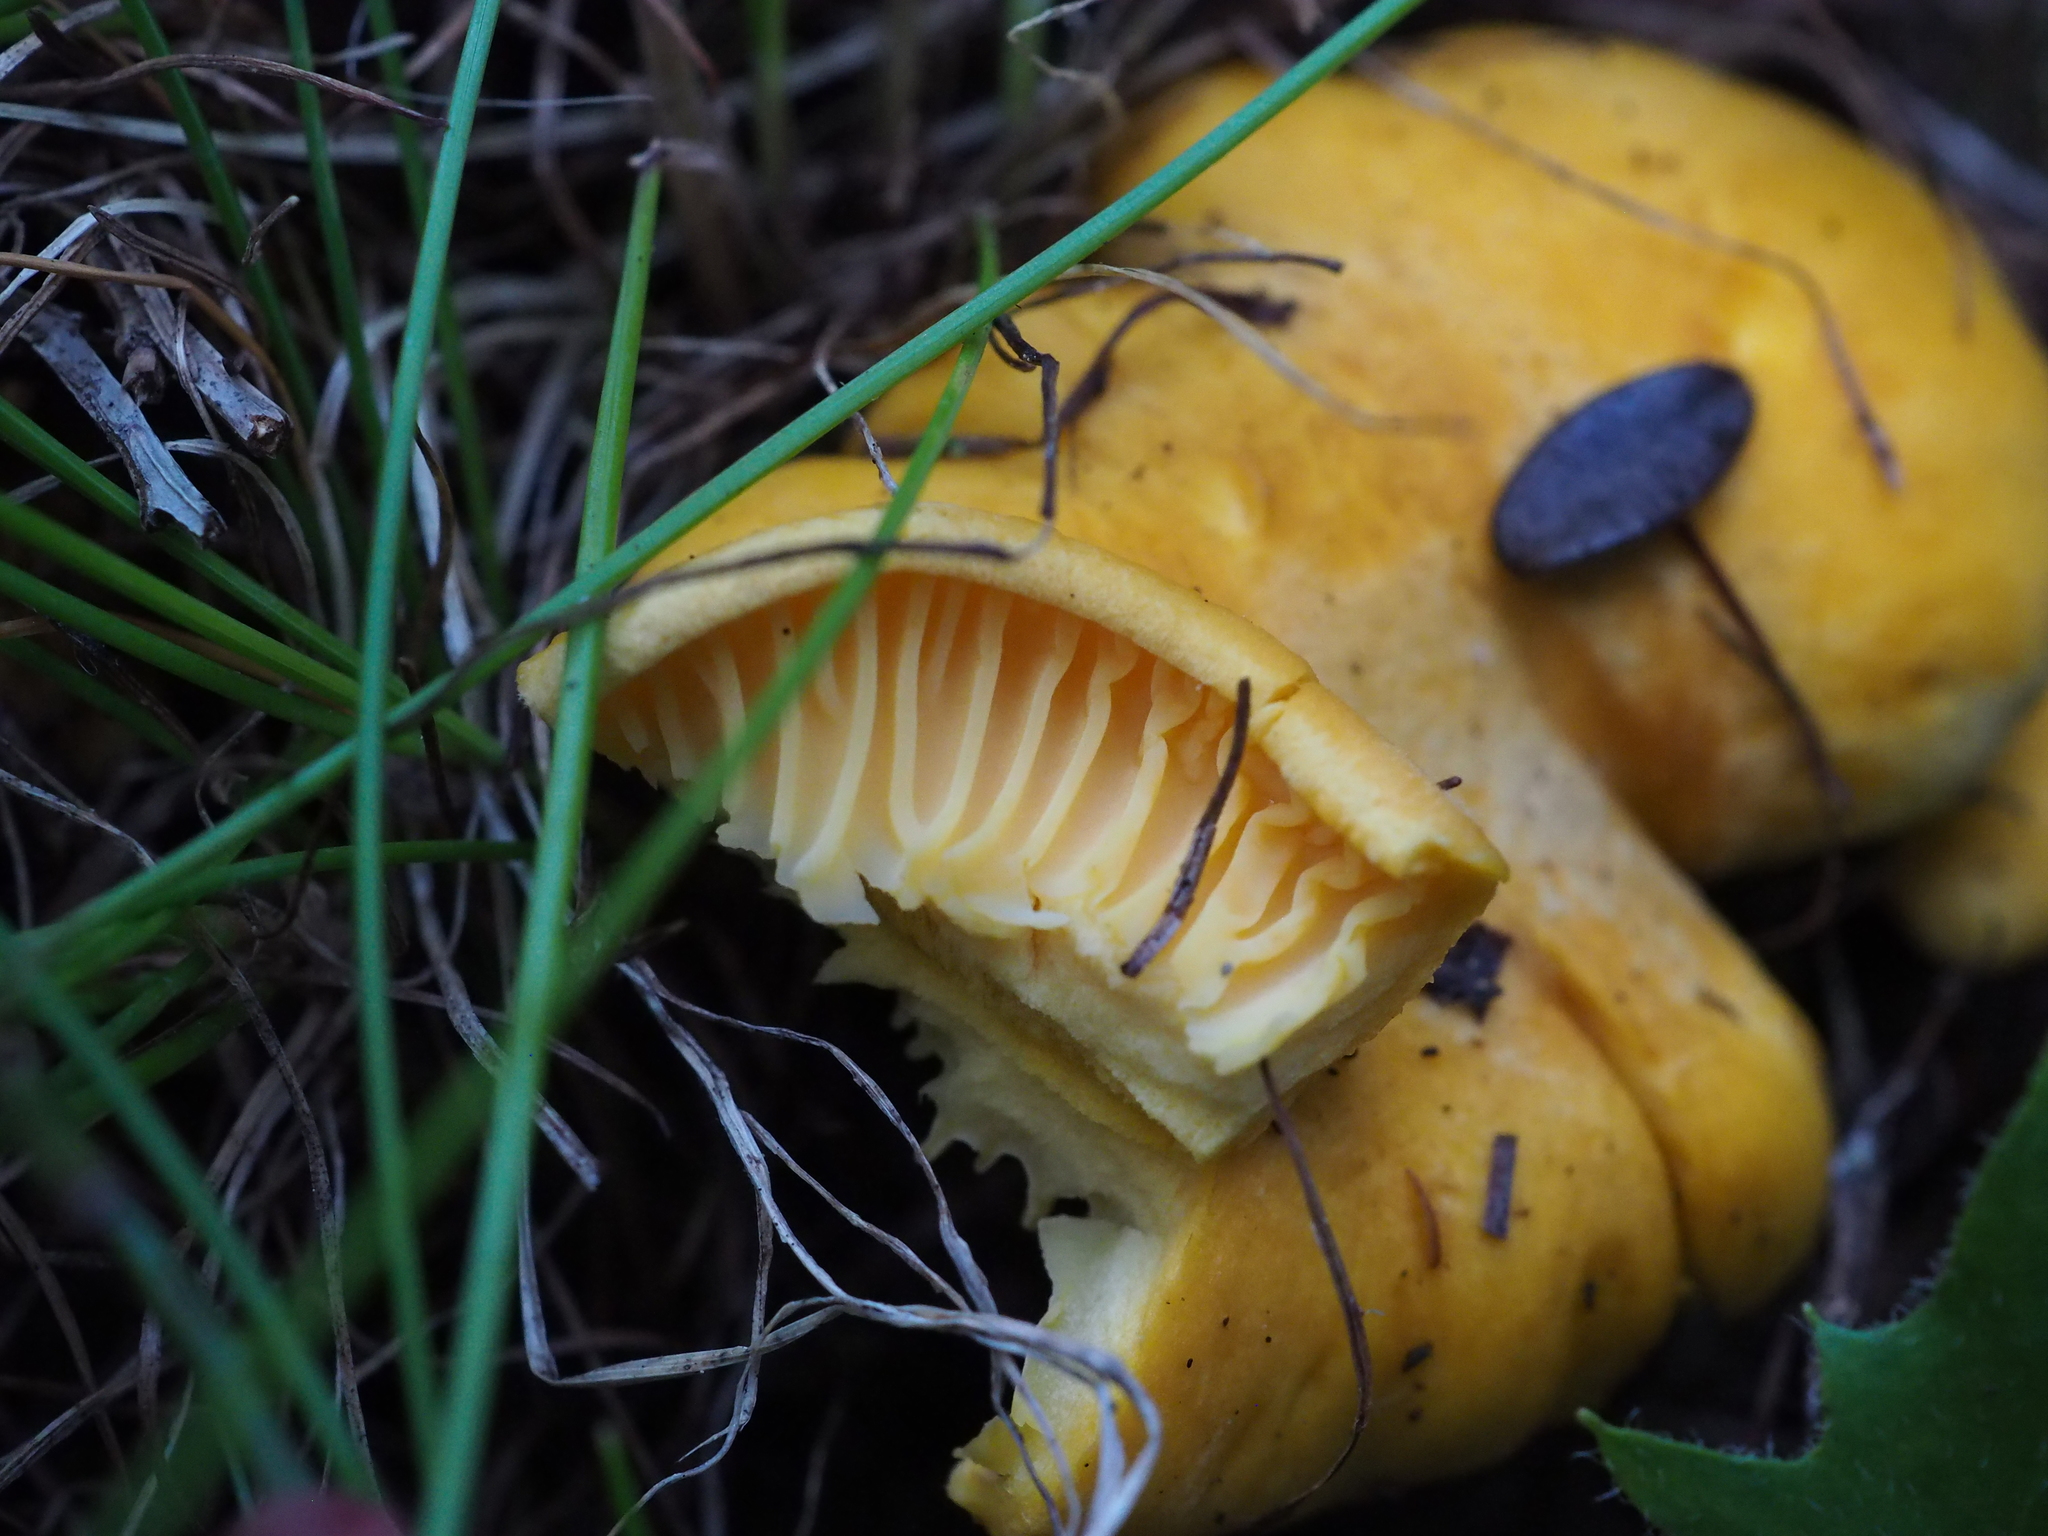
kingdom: Fungi
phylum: Basidiomycota
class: Agaricomycetes
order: Cantharellales
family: Hydnaceae
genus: Cantharellus
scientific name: Cantharellus cibarius
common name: Chanterelle
